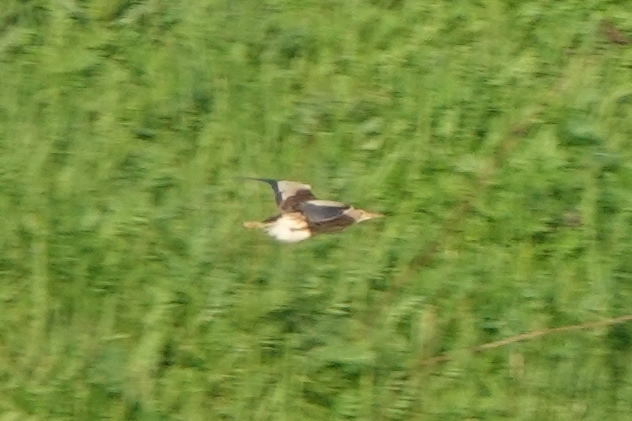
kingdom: Animalia
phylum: Chordata
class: Aves
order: Pelecaniformes
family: Ardeidae
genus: Ixobrychus
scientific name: Ixobrychus minutus
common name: Little bittern
